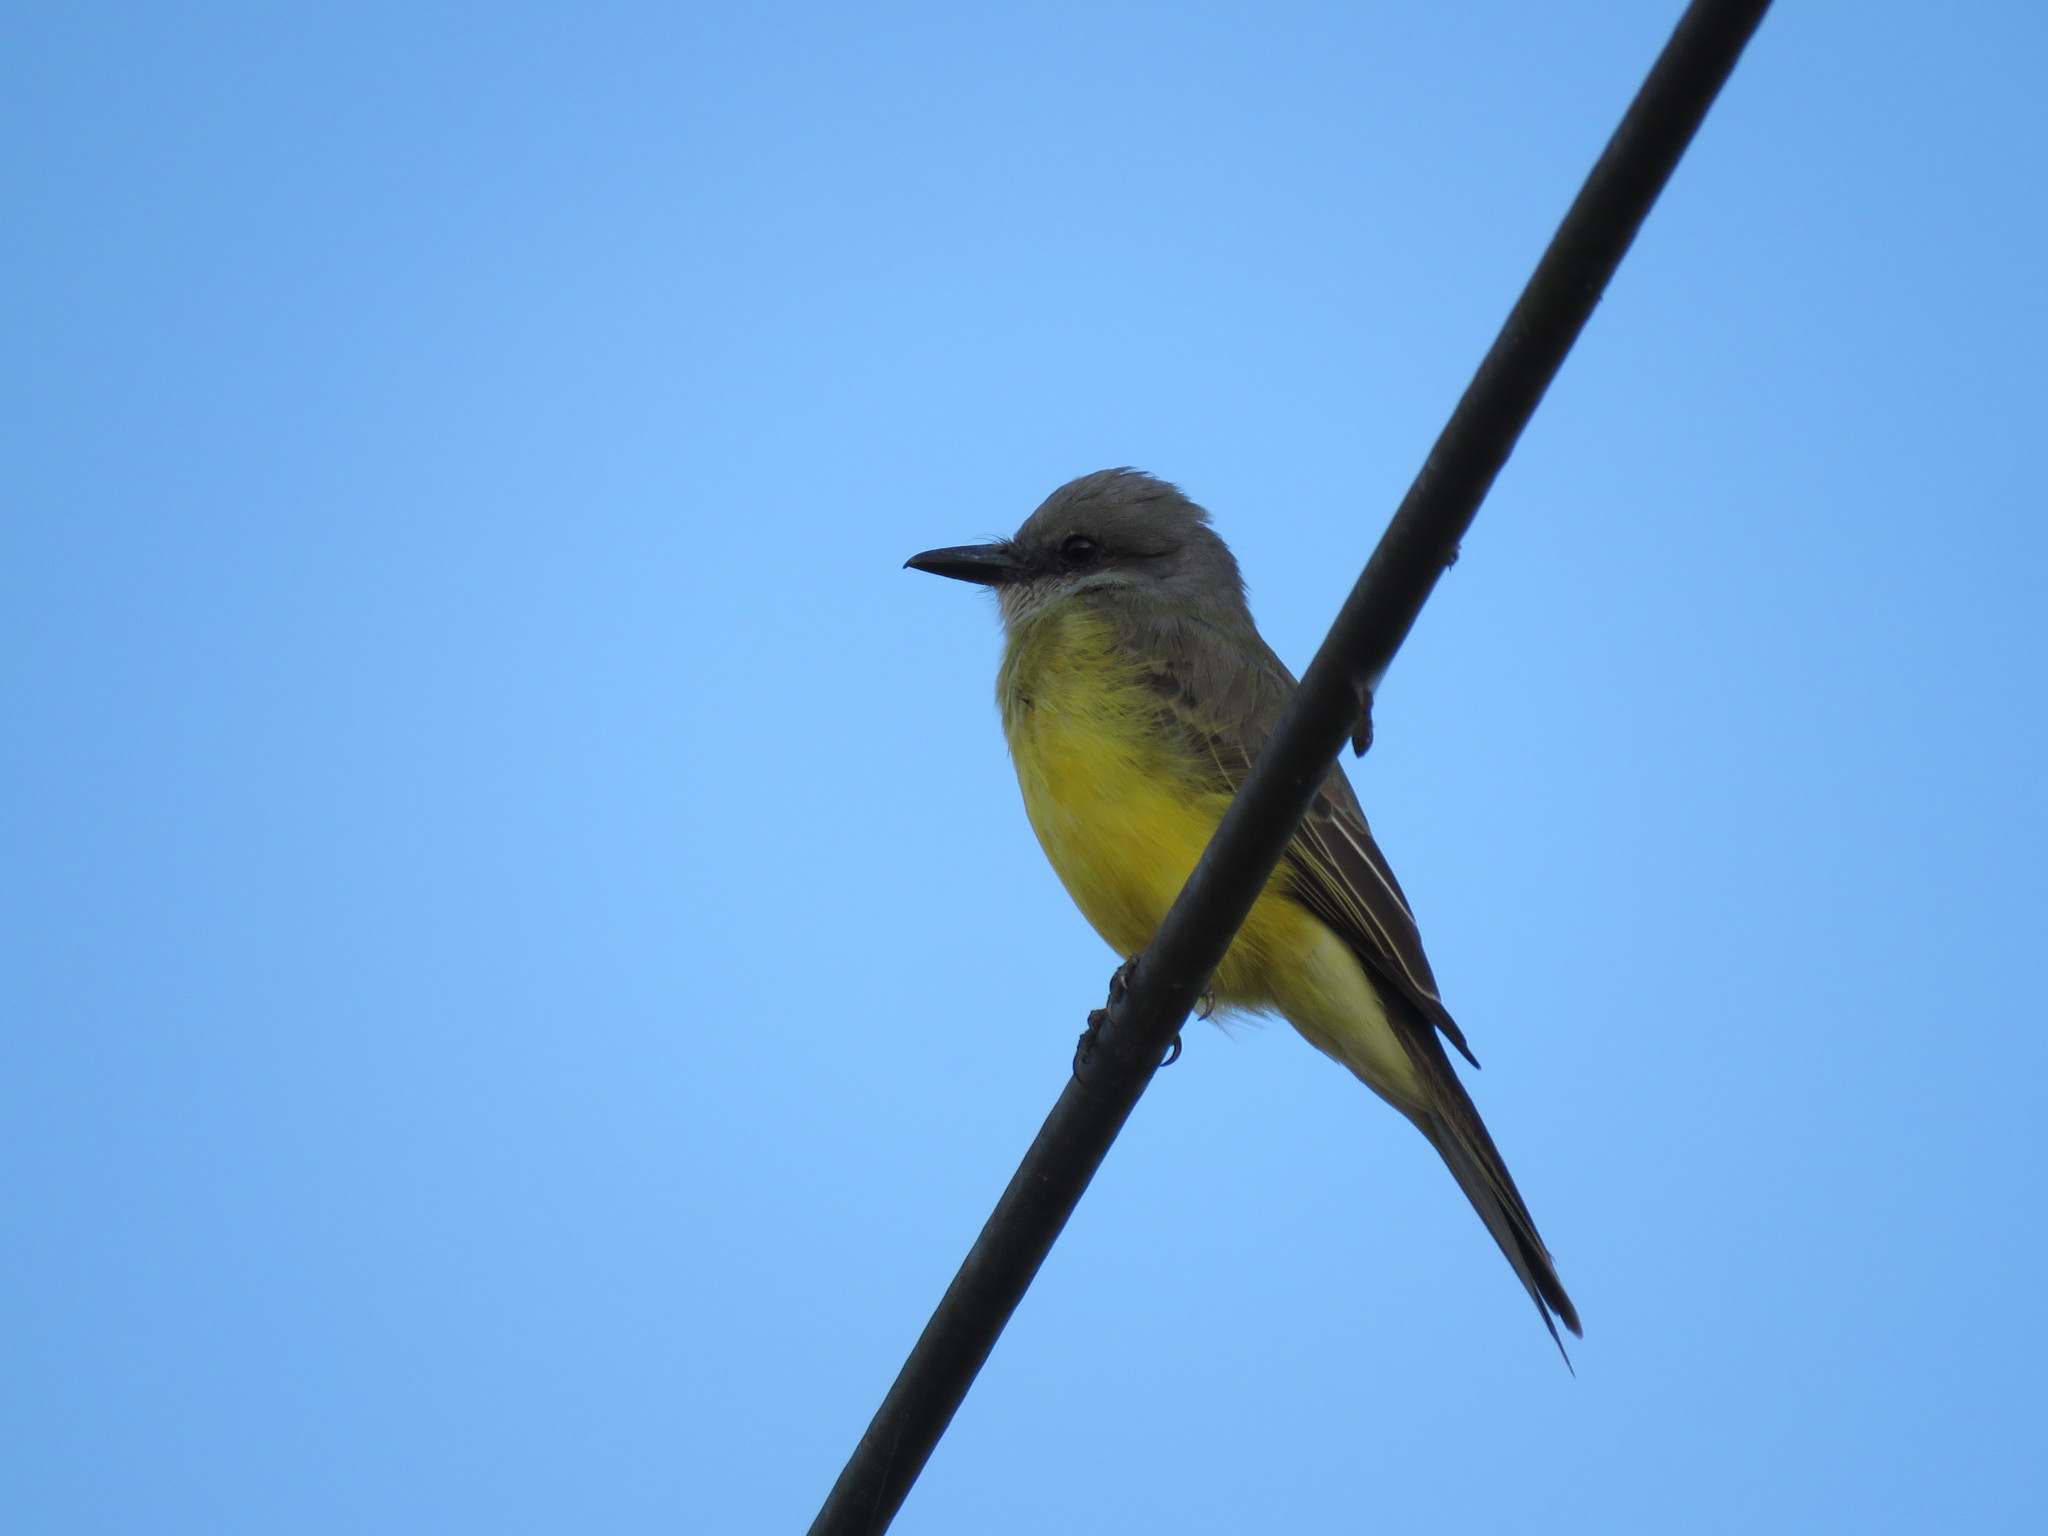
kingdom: Animalia
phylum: Chordata
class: Aves
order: Passeriformes
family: Tyrannidae
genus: Tyrannus
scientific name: Tyrannus melancholicus
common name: Tropical kingbird
